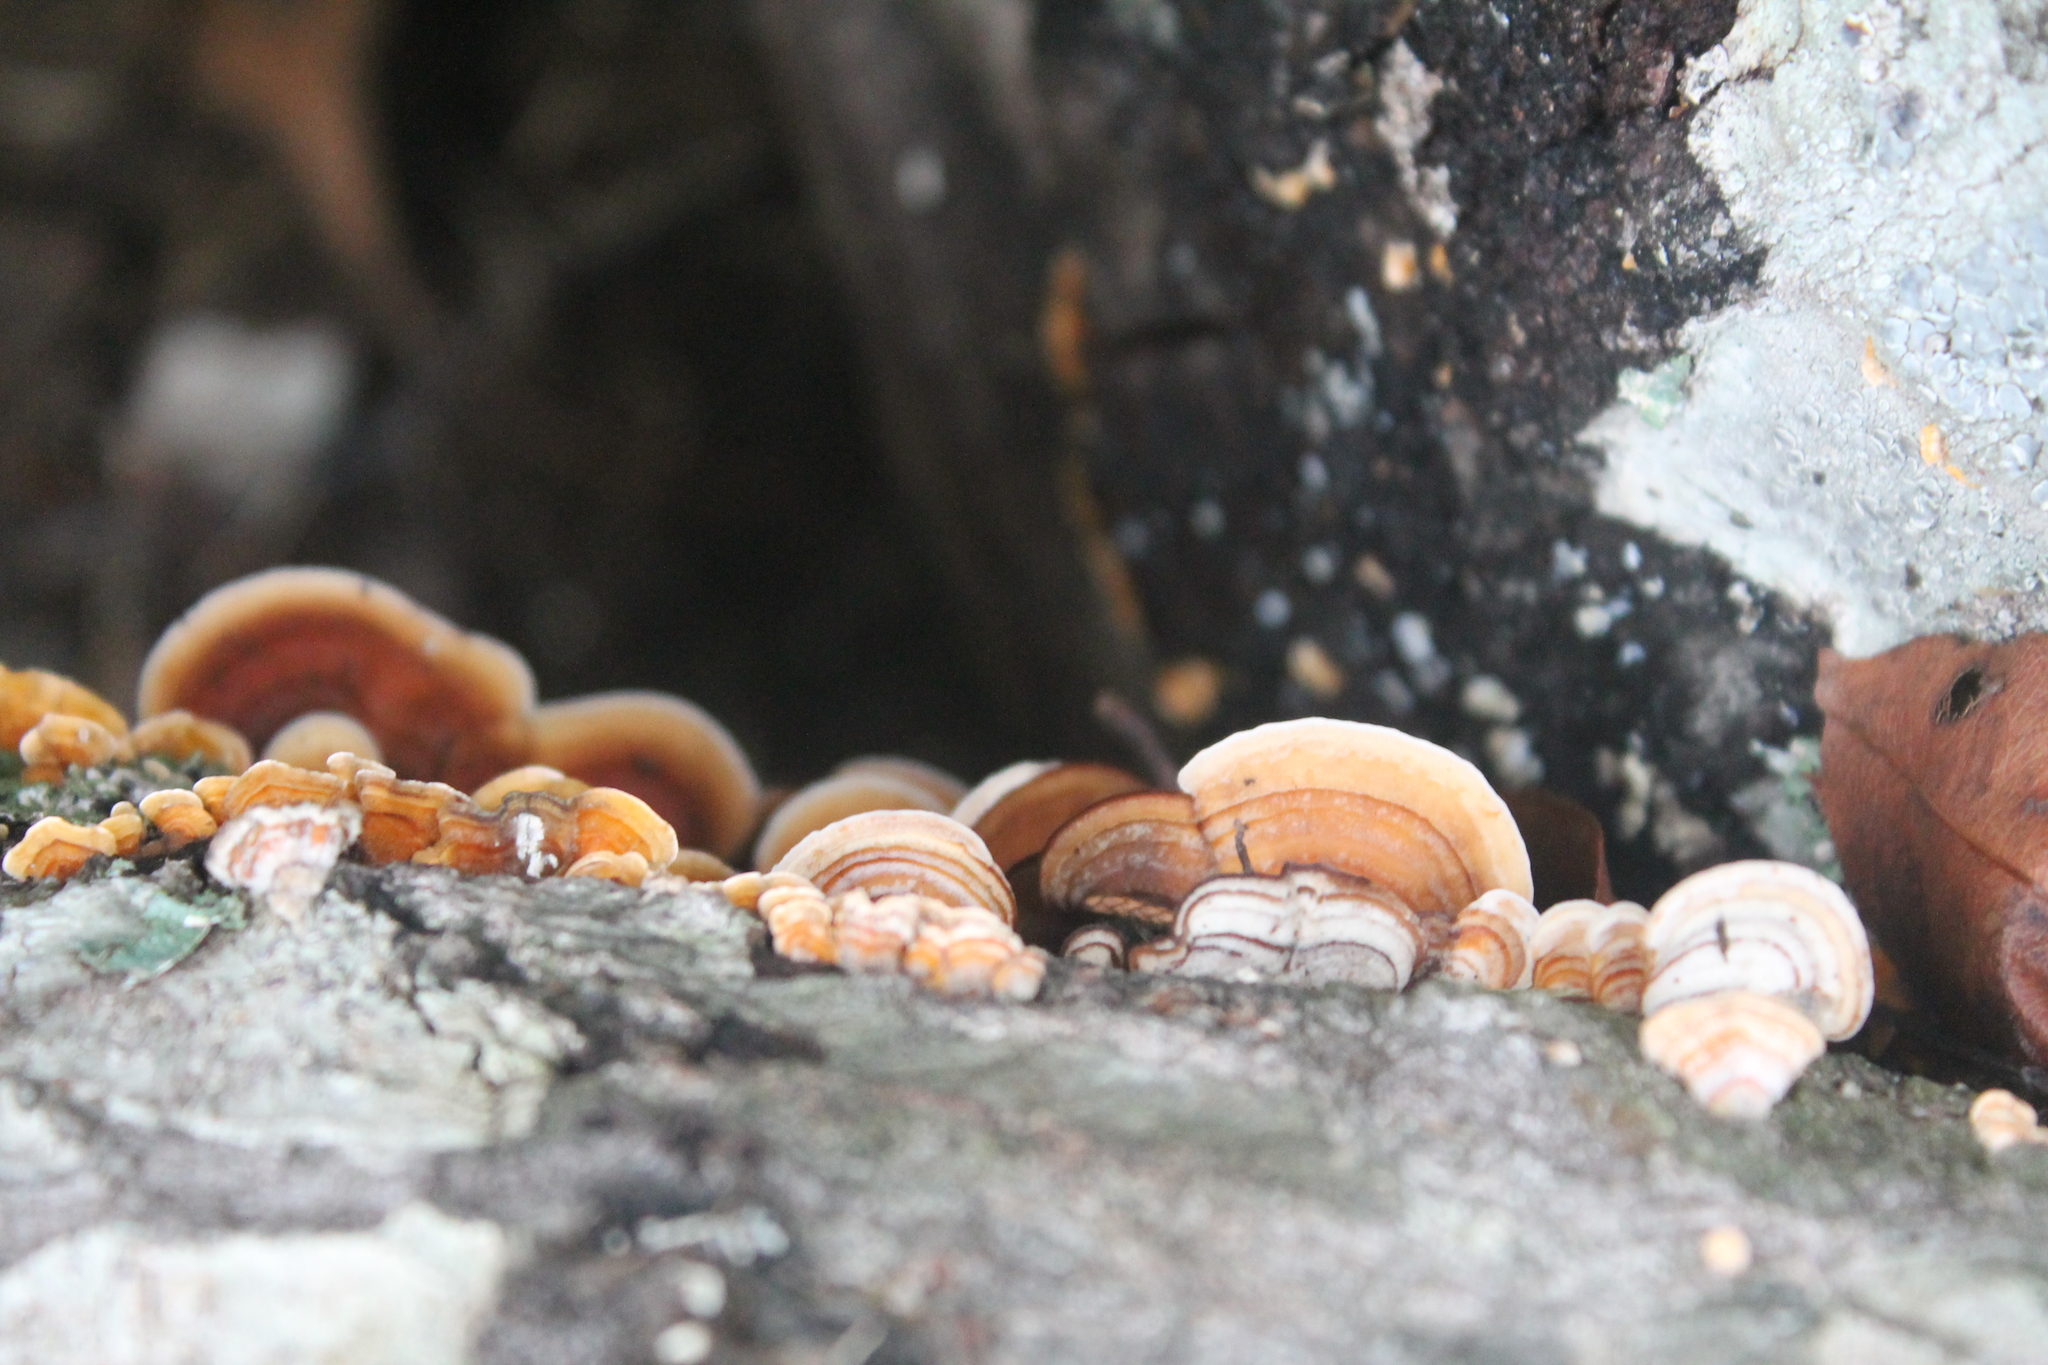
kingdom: Fungi
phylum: Basidiomycota
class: Agaricomycetes
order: Russulales
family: Stereaceae
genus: Stereum
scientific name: Stereum lobatum
